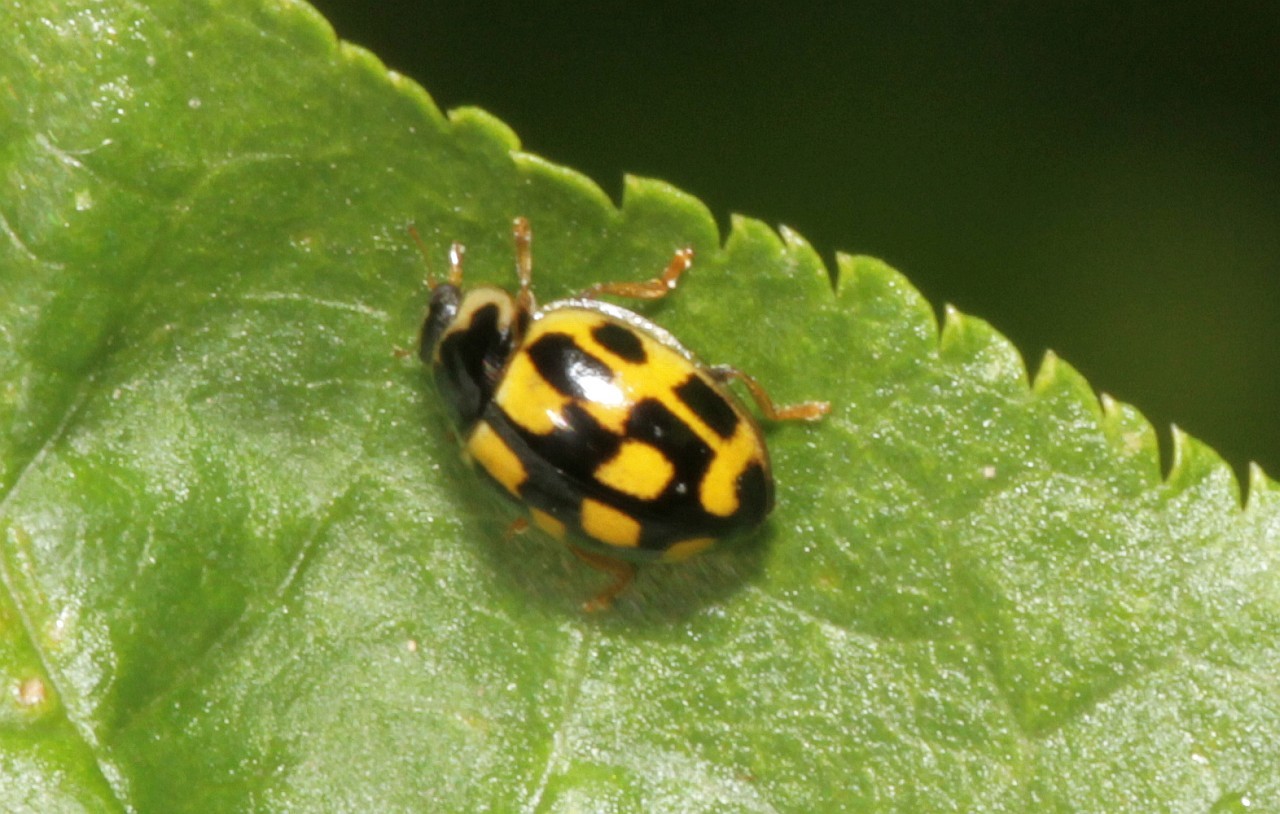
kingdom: Animalia
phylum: Arthropoda
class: Insecta
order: Coleoptera
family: Coccinellidae
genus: Propylaea
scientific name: Propylaea quatuordecimpunctata
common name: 14-spotted ladybird beetle
